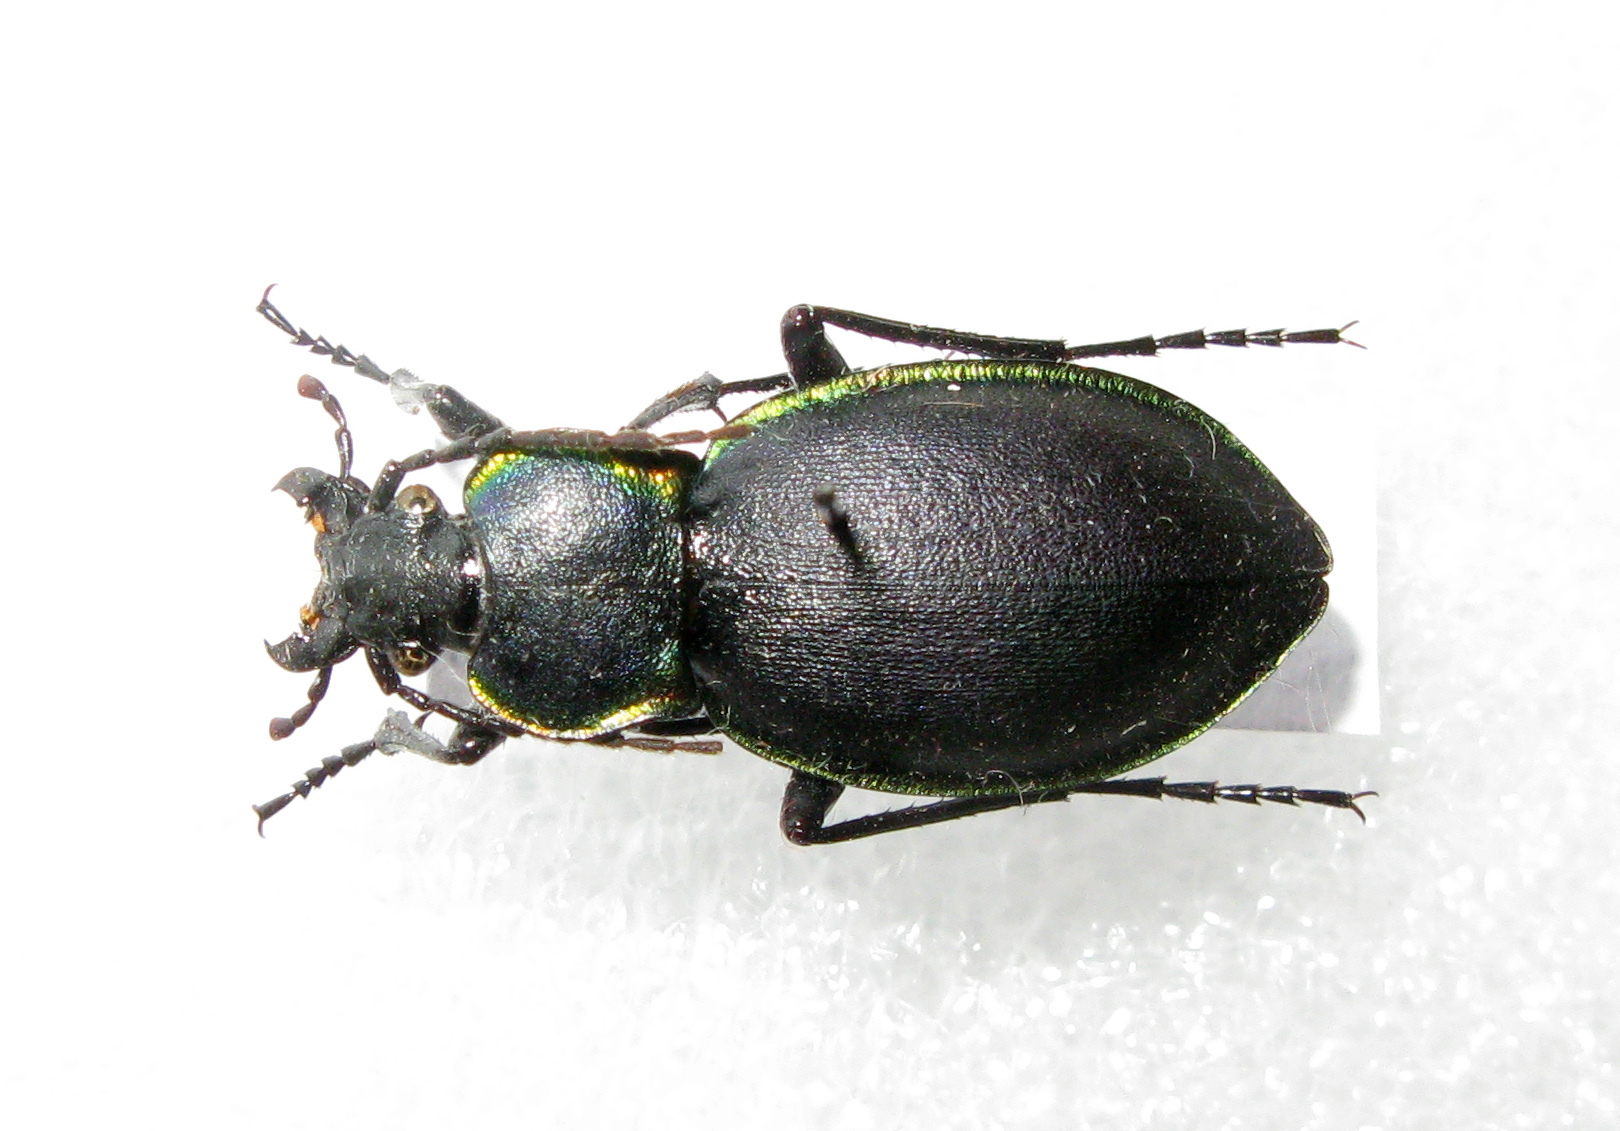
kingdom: Animalia
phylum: Arthropoda
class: Insecta
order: Coleoptera
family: Carabidae
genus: Carabus
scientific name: Carabus marginalis
